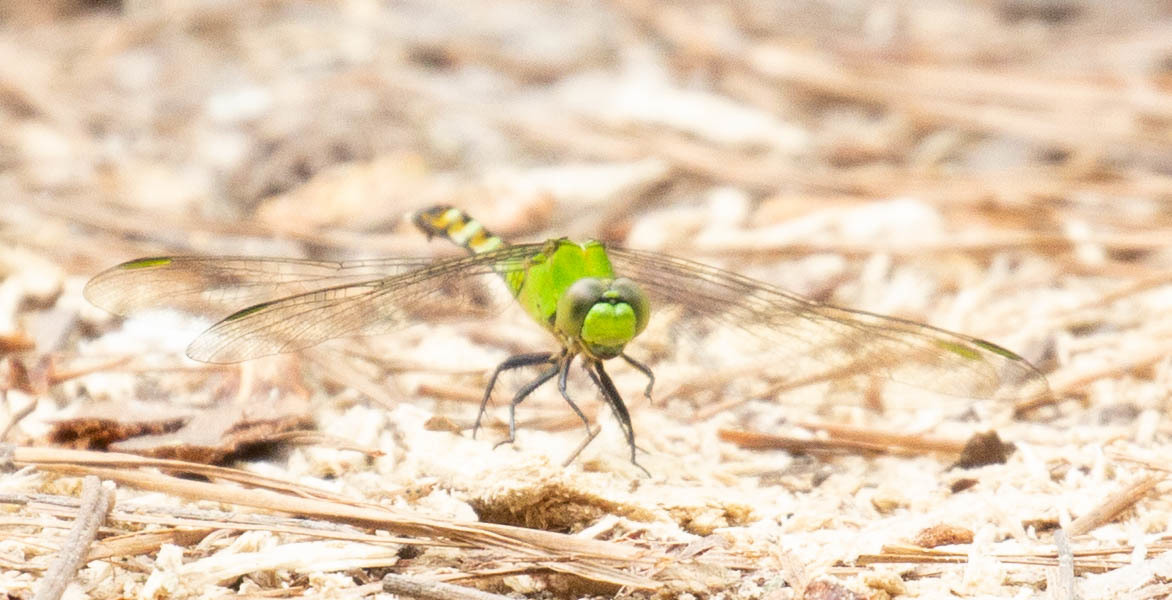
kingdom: Animalia
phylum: Arthropoda
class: Insecta
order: Odonata
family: Libellulidae
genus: Erythemis
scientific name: Erythemis simplicicollis
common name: Eastern pondhawk
